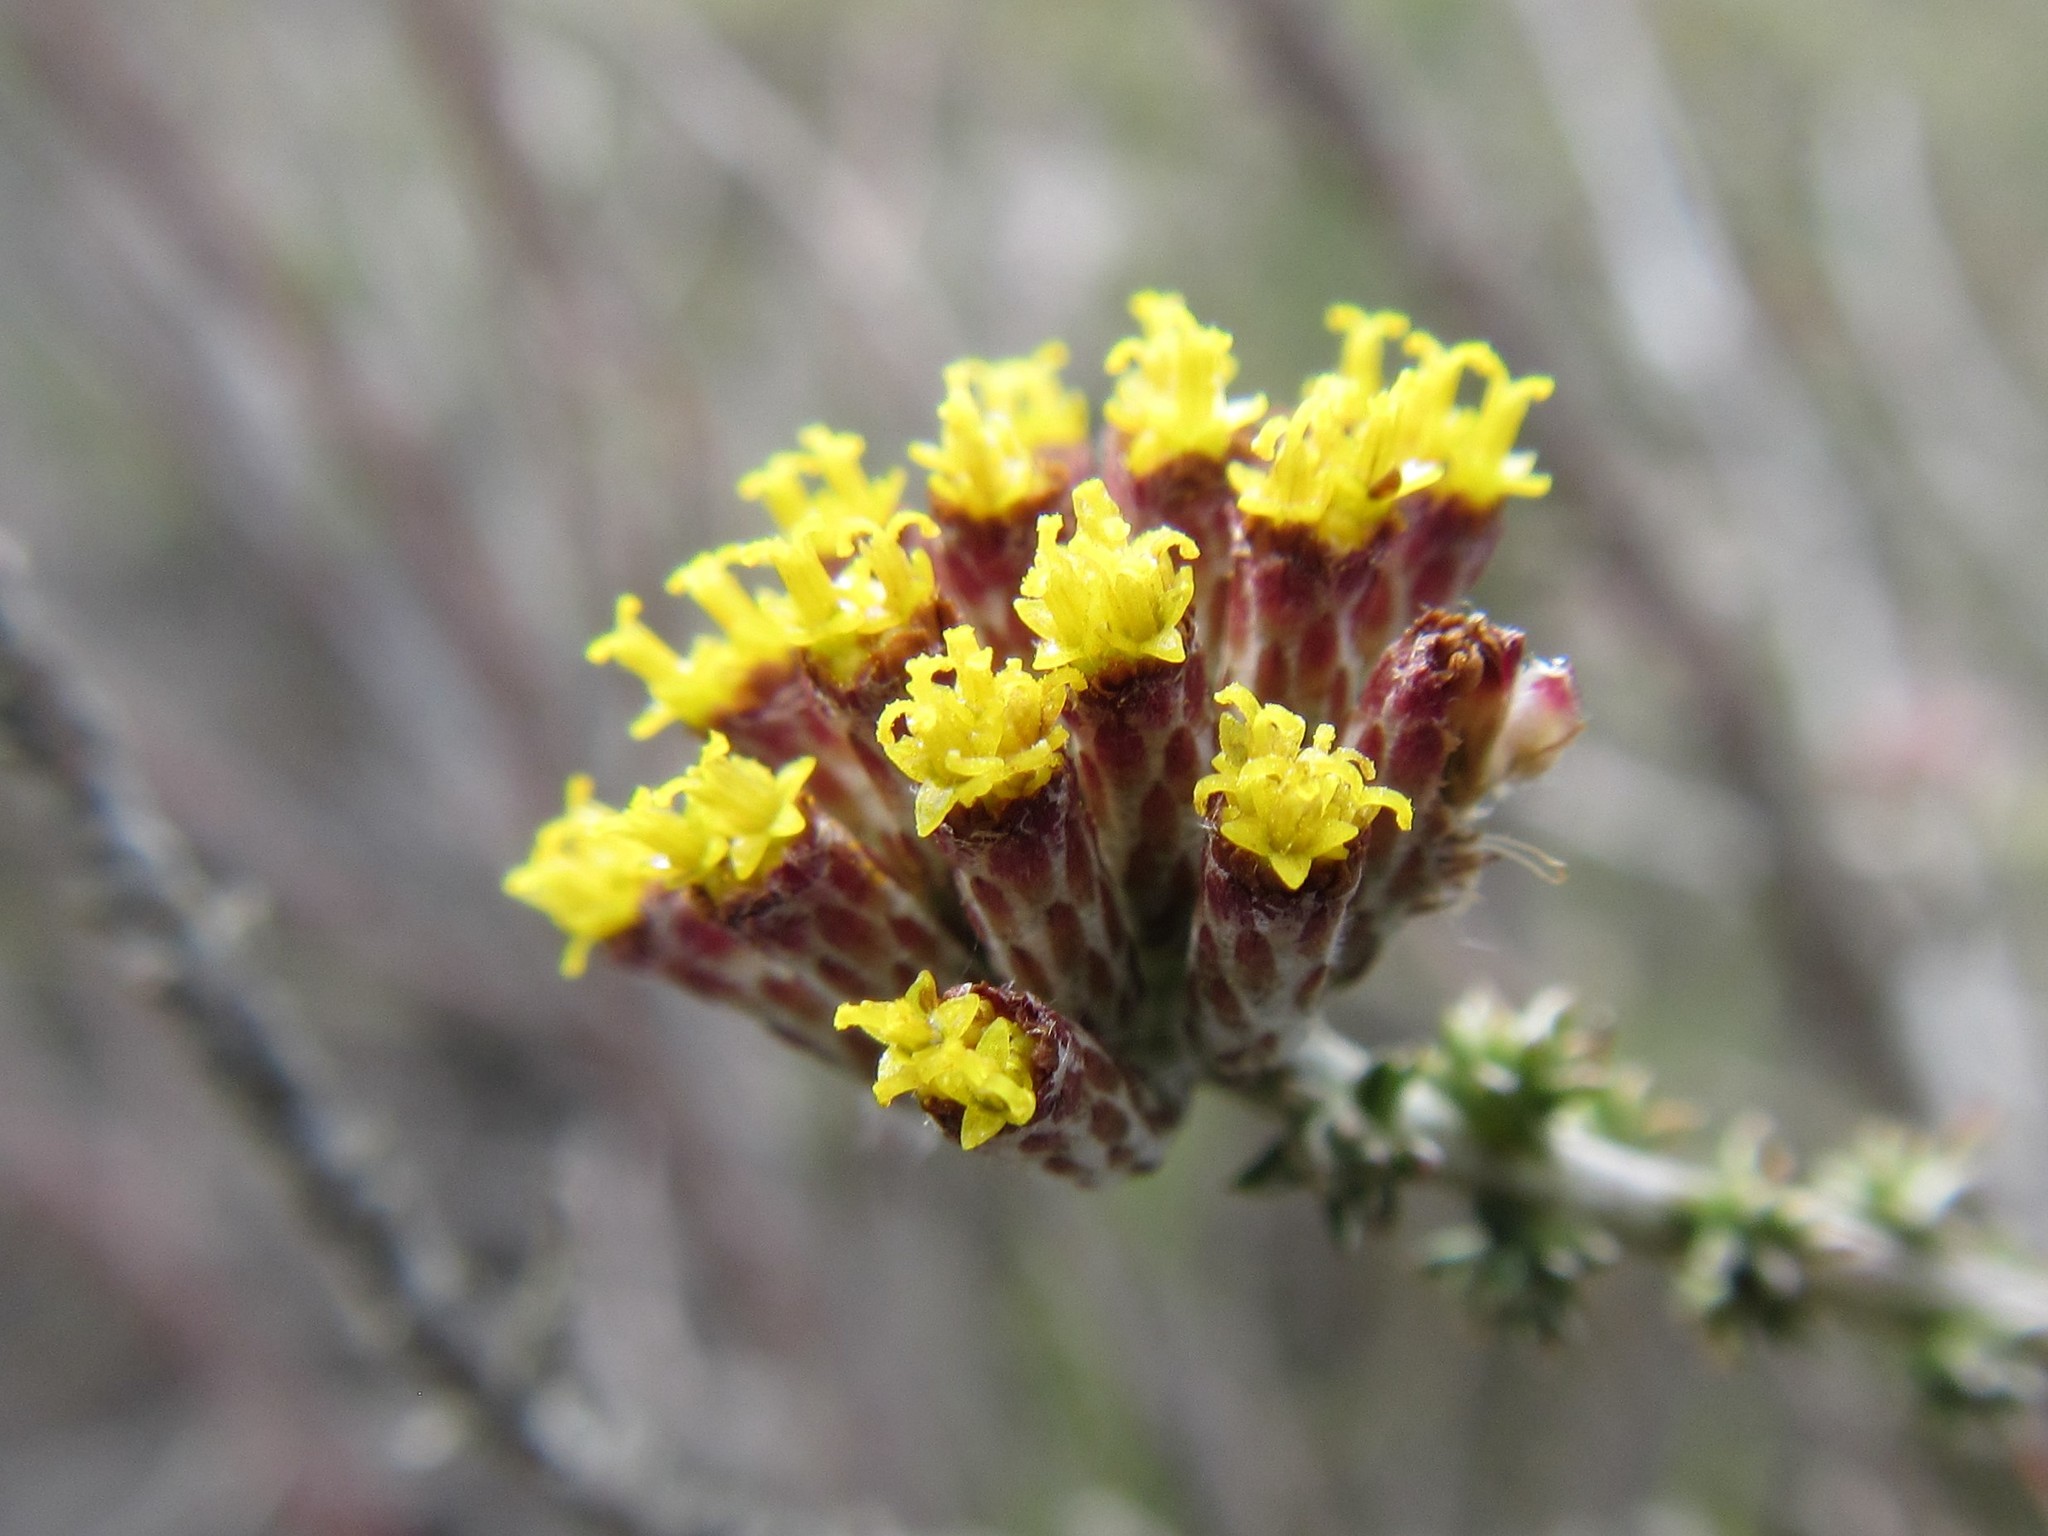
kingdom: Plantae
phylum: Tracheophyta
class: Magnoliopsida
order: Asterales
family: Asteraceae
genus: Metalasia
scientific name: Metalasia octoflora
